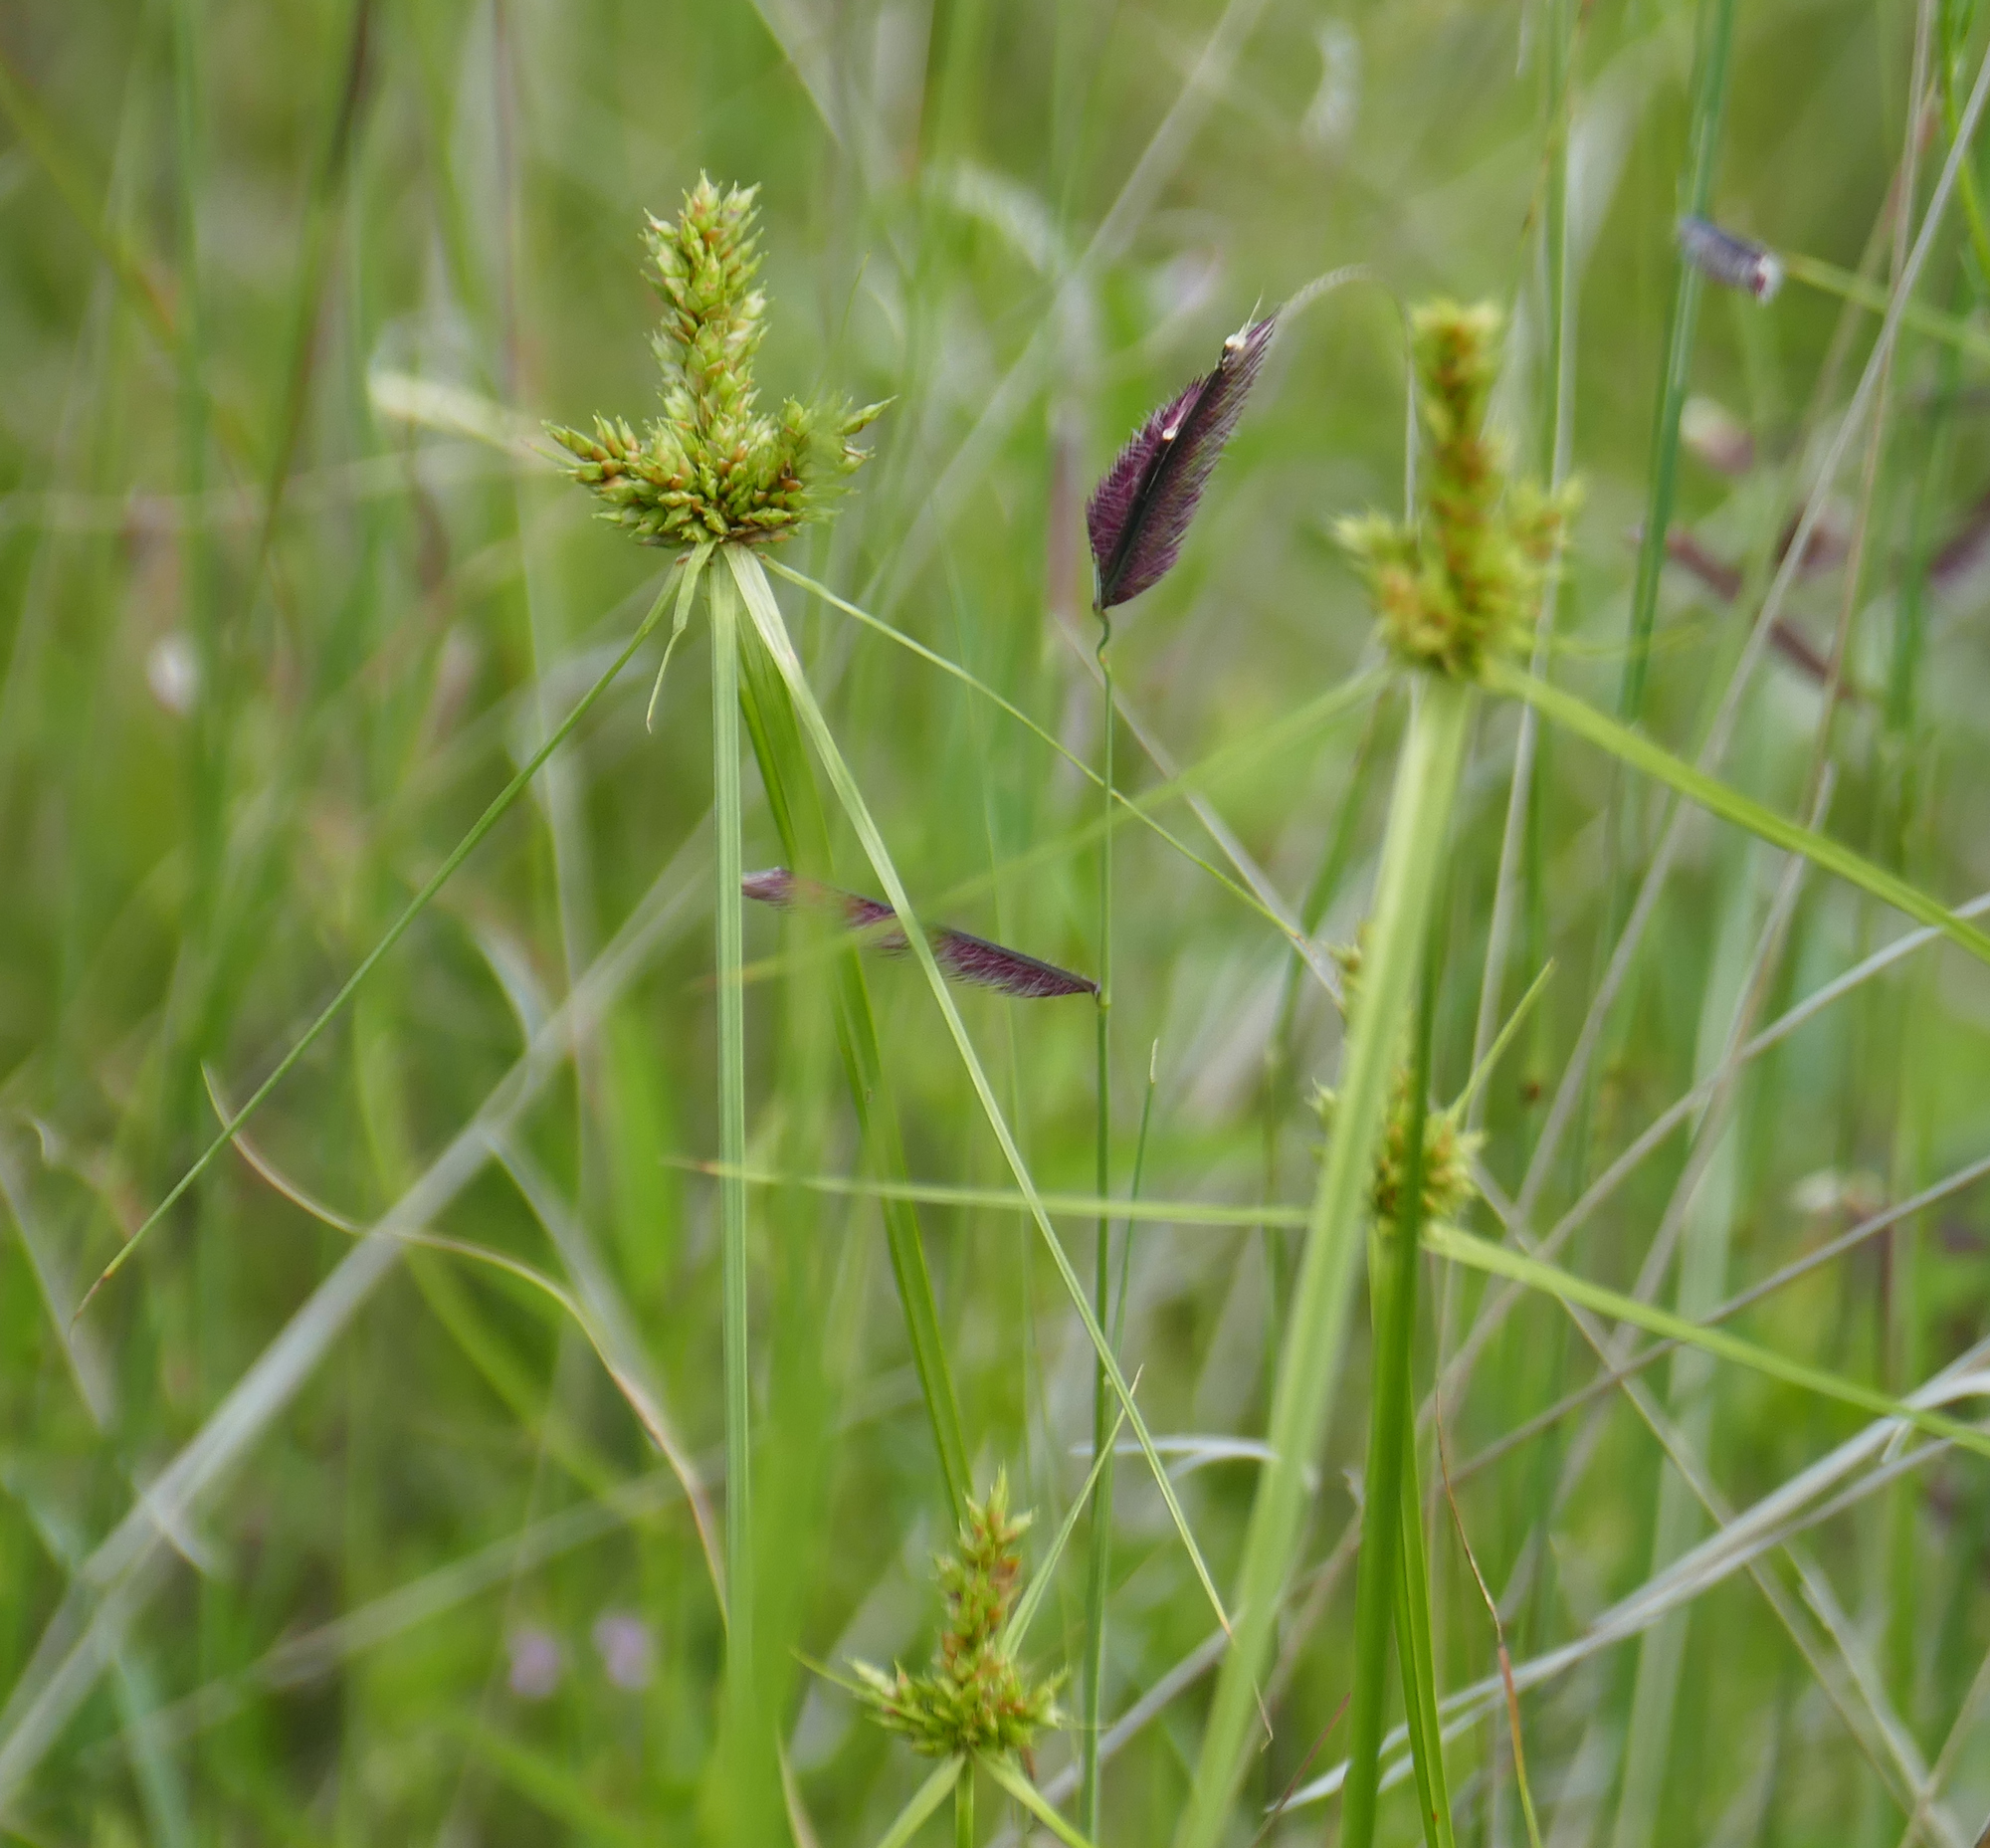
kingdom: Plantae
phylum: Tracheophyta
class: Liliopsida
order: Poales
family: Cyperaceae
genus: Cyperus
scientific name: Cyperus fendlerianus
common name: Fendler flat sedge
